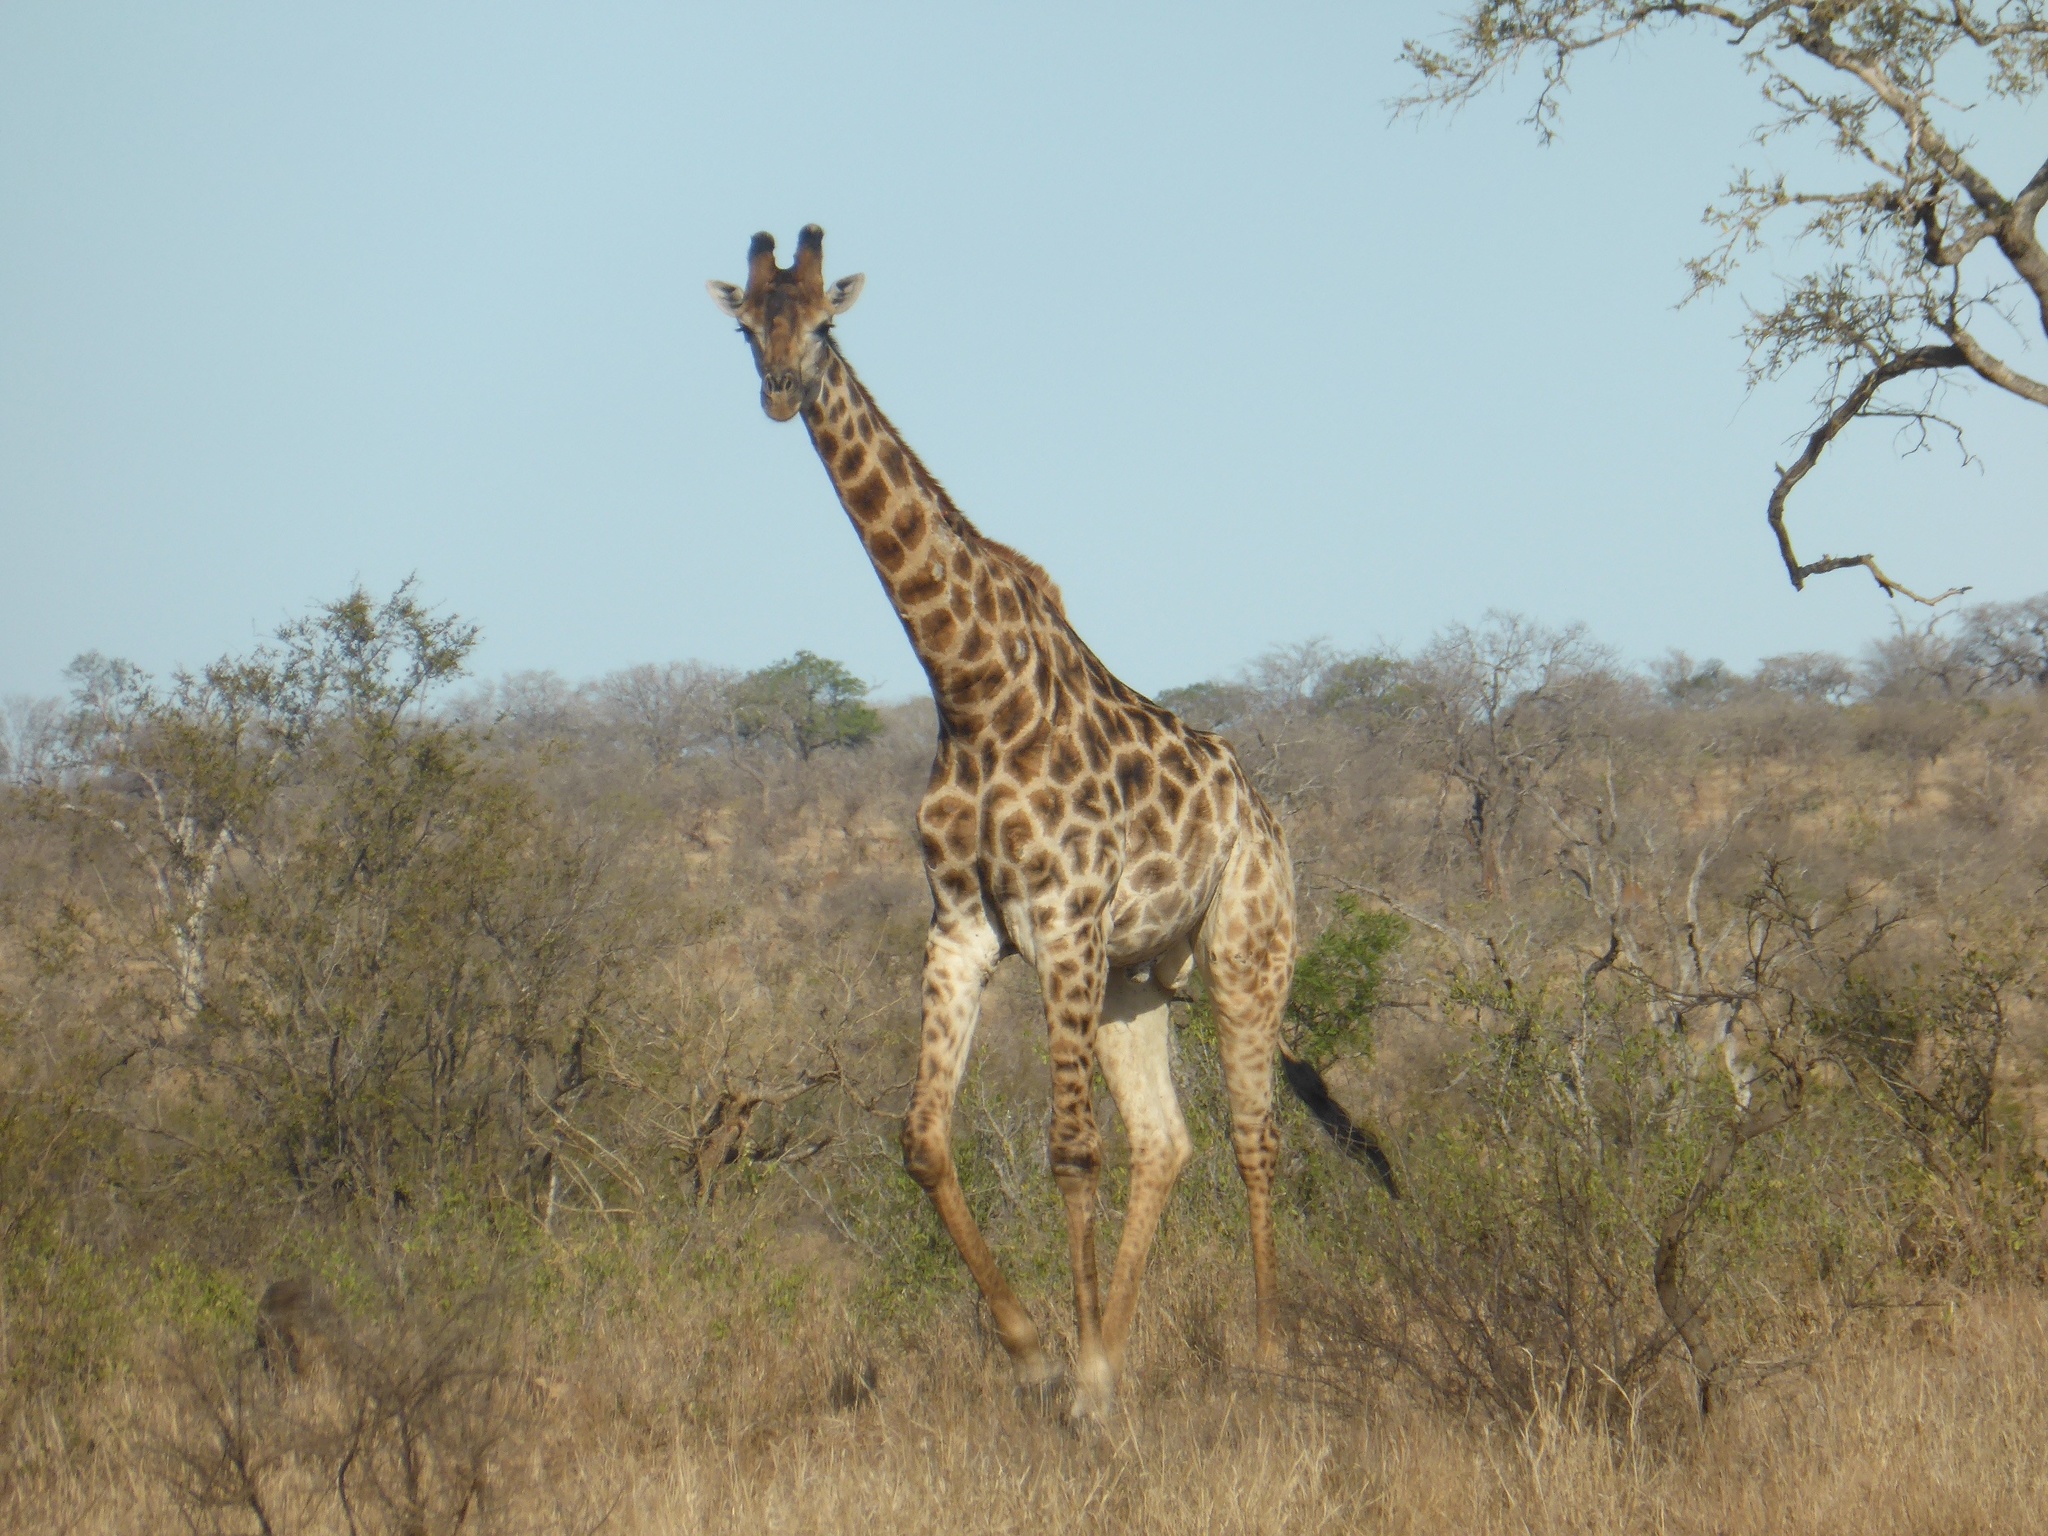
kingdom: Animalia
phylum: Chordata
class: Mammalia
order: Artiodactyla
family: Giraffidae
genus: Giraffa
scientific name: Giraffa giraffa
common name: Southern giraffe
